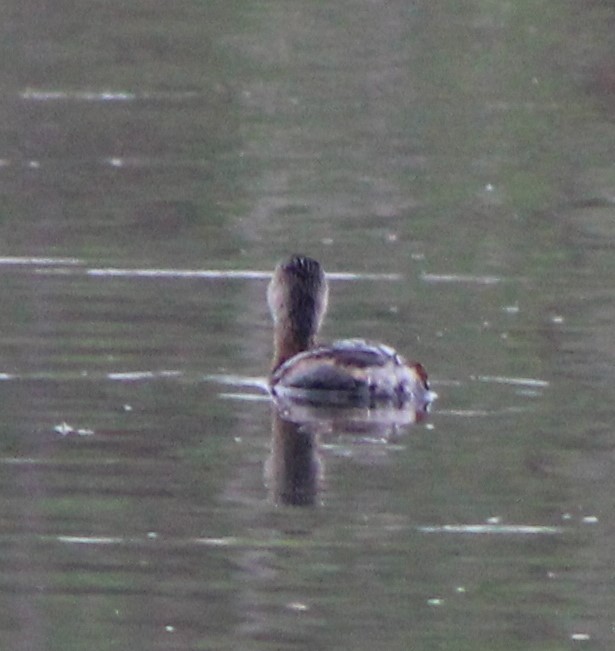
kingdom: Animalia
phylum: Chordata
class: Aves
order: Podicipediformes
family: Podicipedidae
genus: Podilymbus
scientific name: Podilymbus podiceps
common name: Pied-billed grebe
